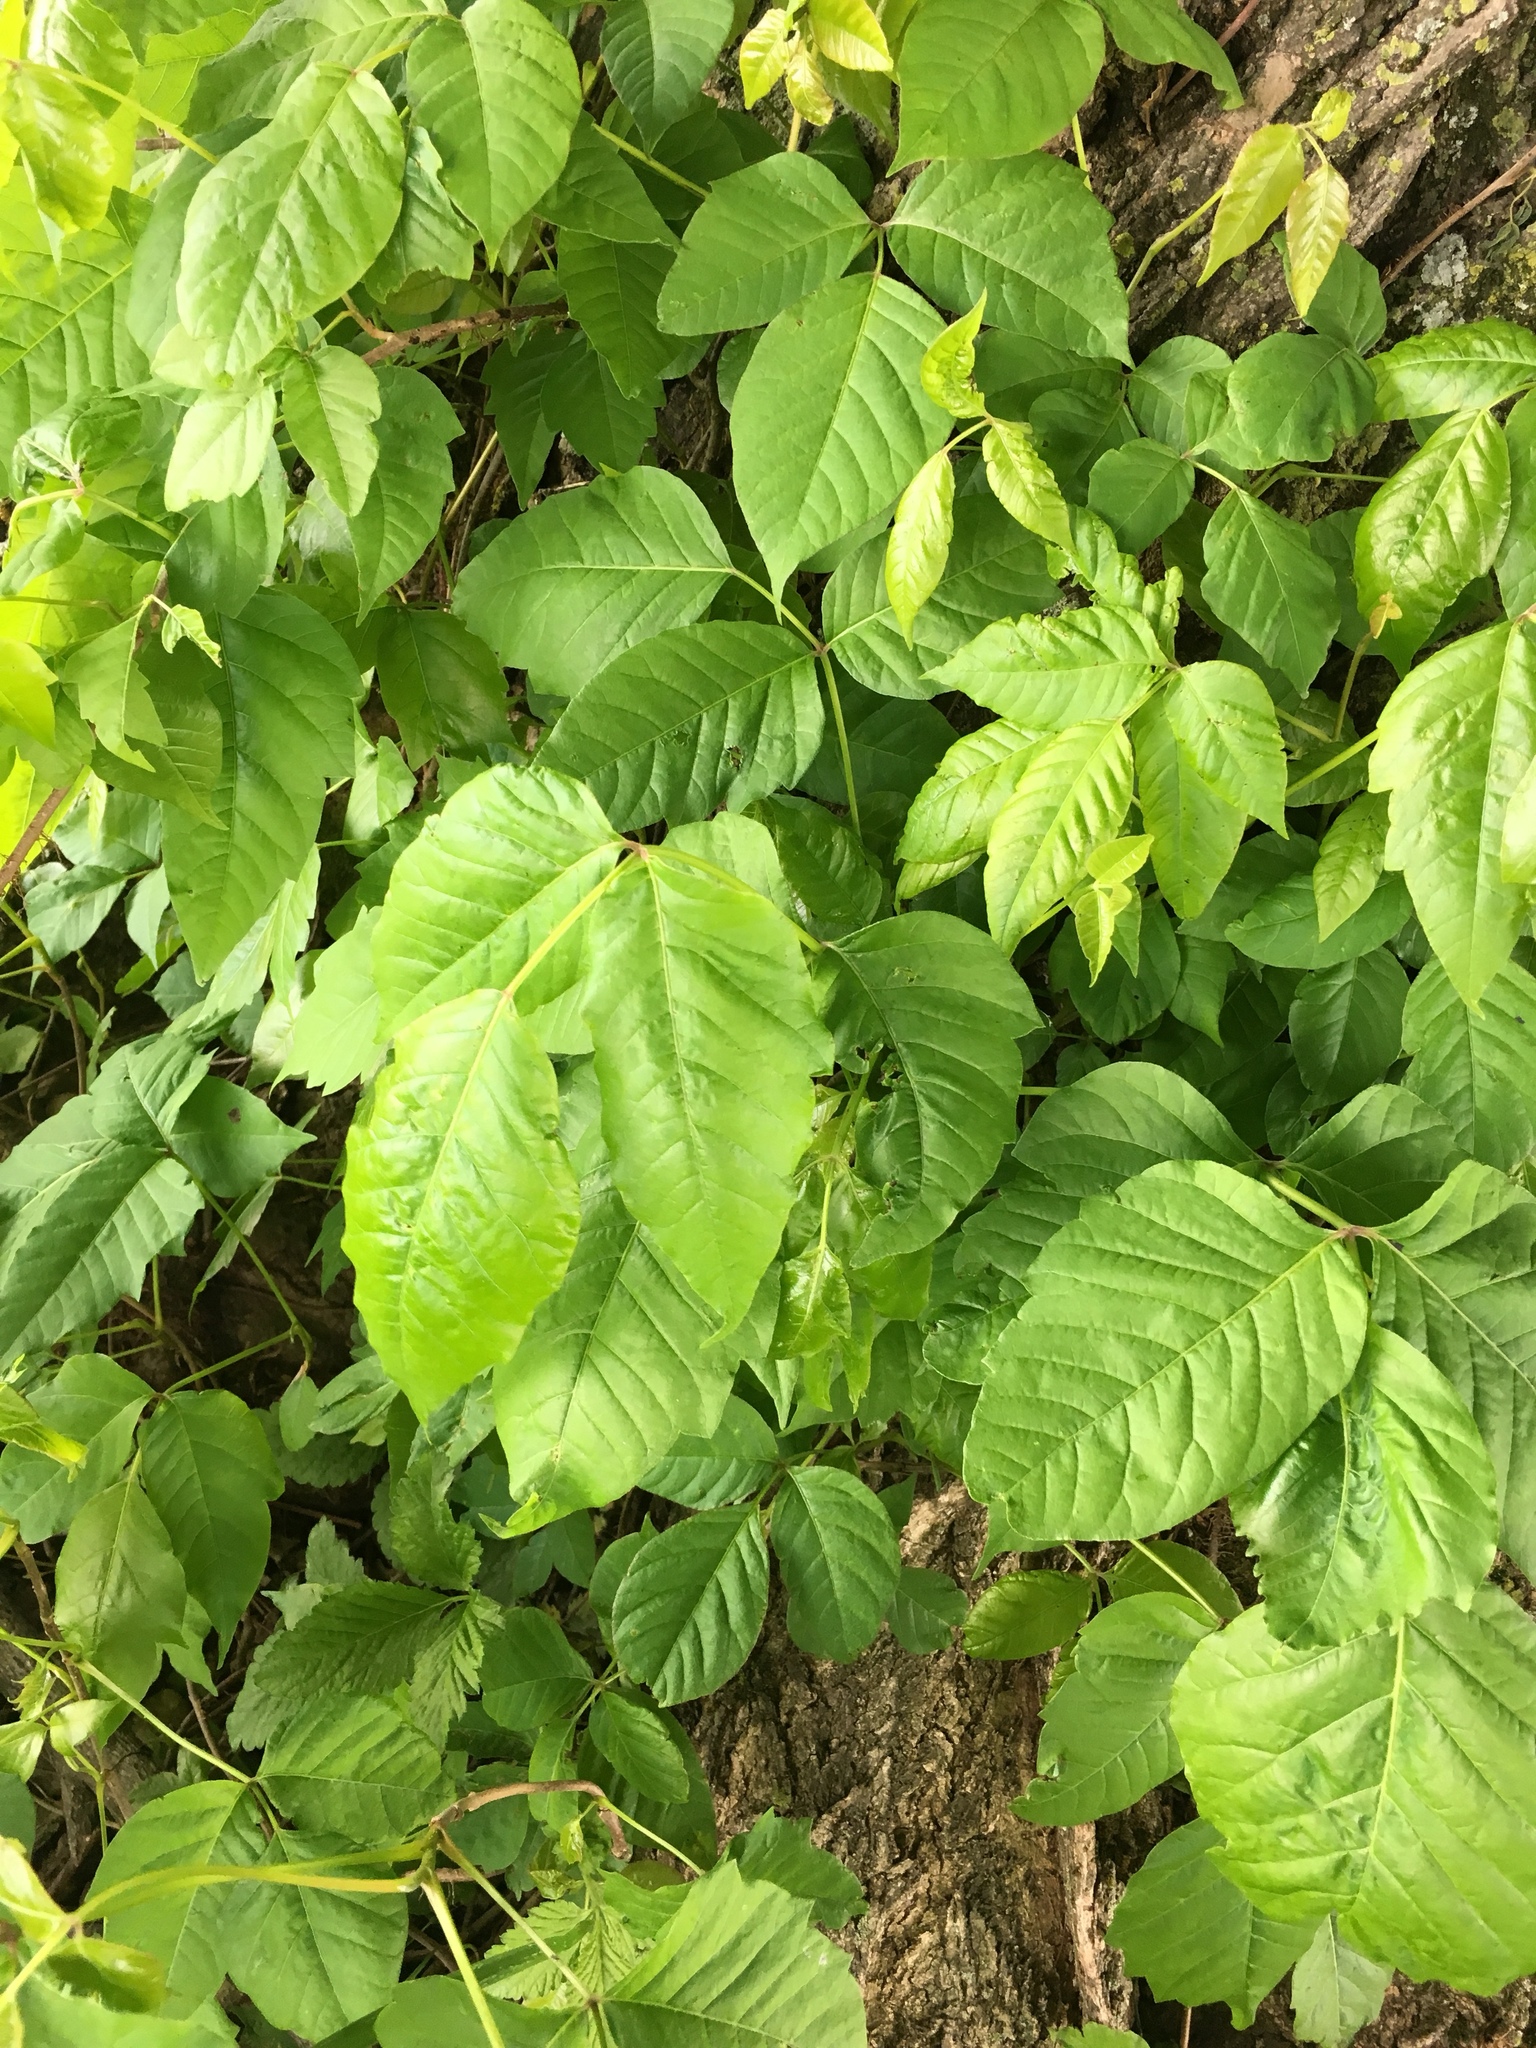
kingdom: Plantae
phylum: Tracheophyta
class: Magnoliopsida
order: Sapindales
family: Anacardiaceae
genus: Toxicodendron
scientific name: Toxicodendron radicans
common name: Poison ivy
